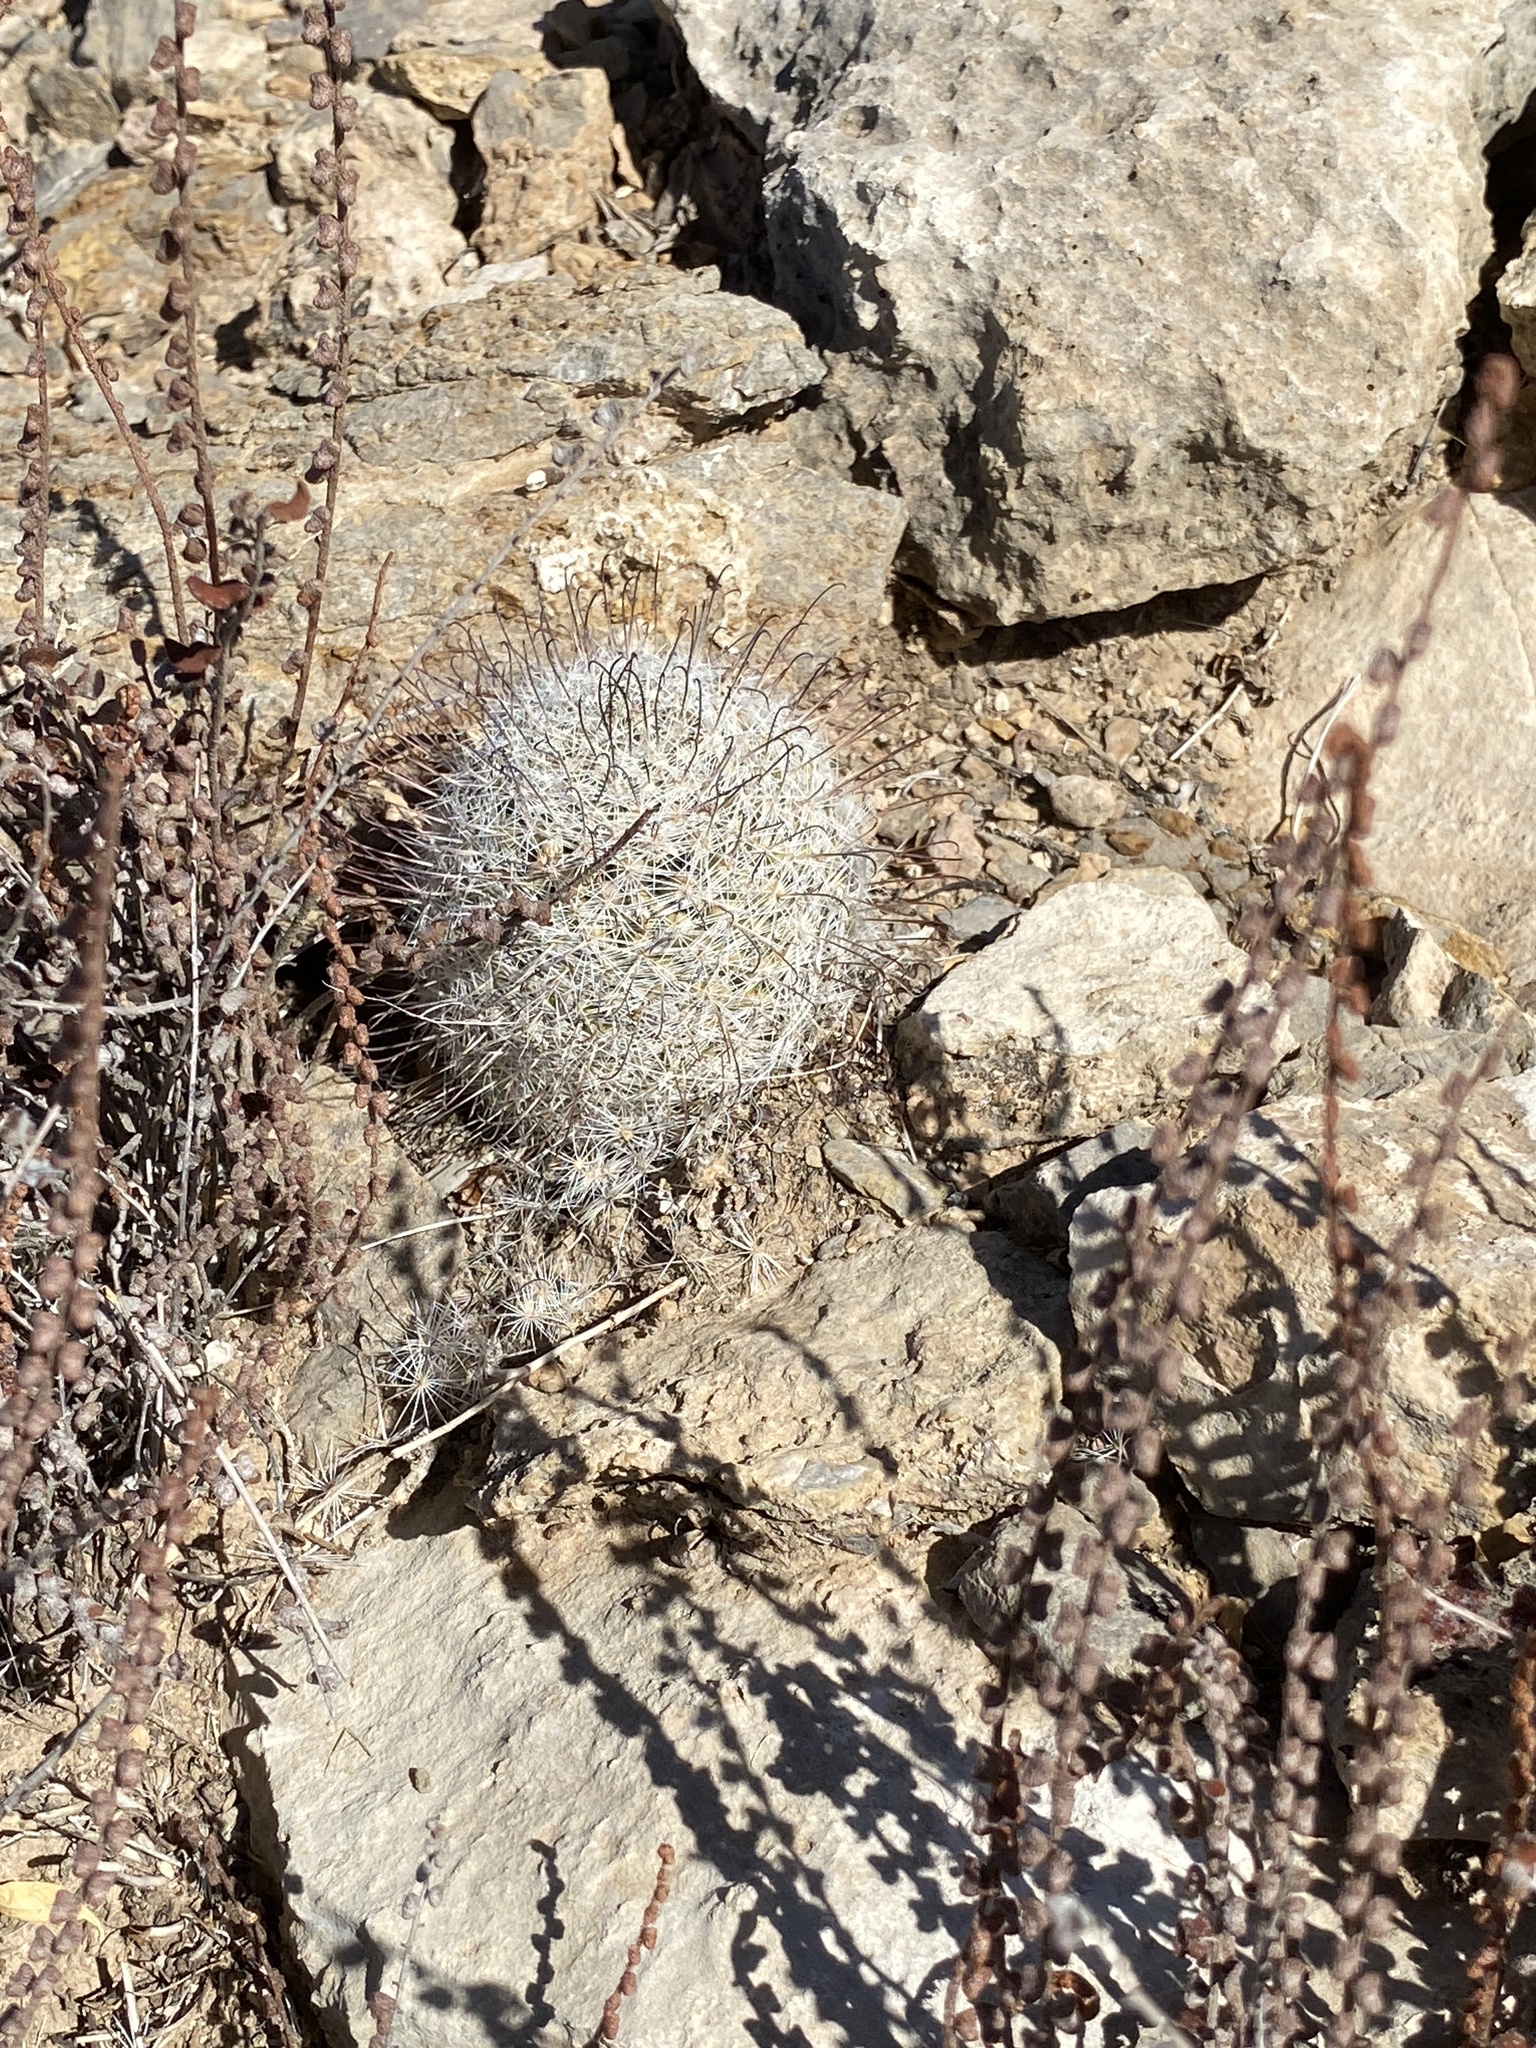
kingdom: Plantae
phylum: Tracheophyta
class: Magnoliopsida
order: Caryophyllales
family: Cactaceae
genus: Cochemiea
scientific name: Cochemiea grahamii
